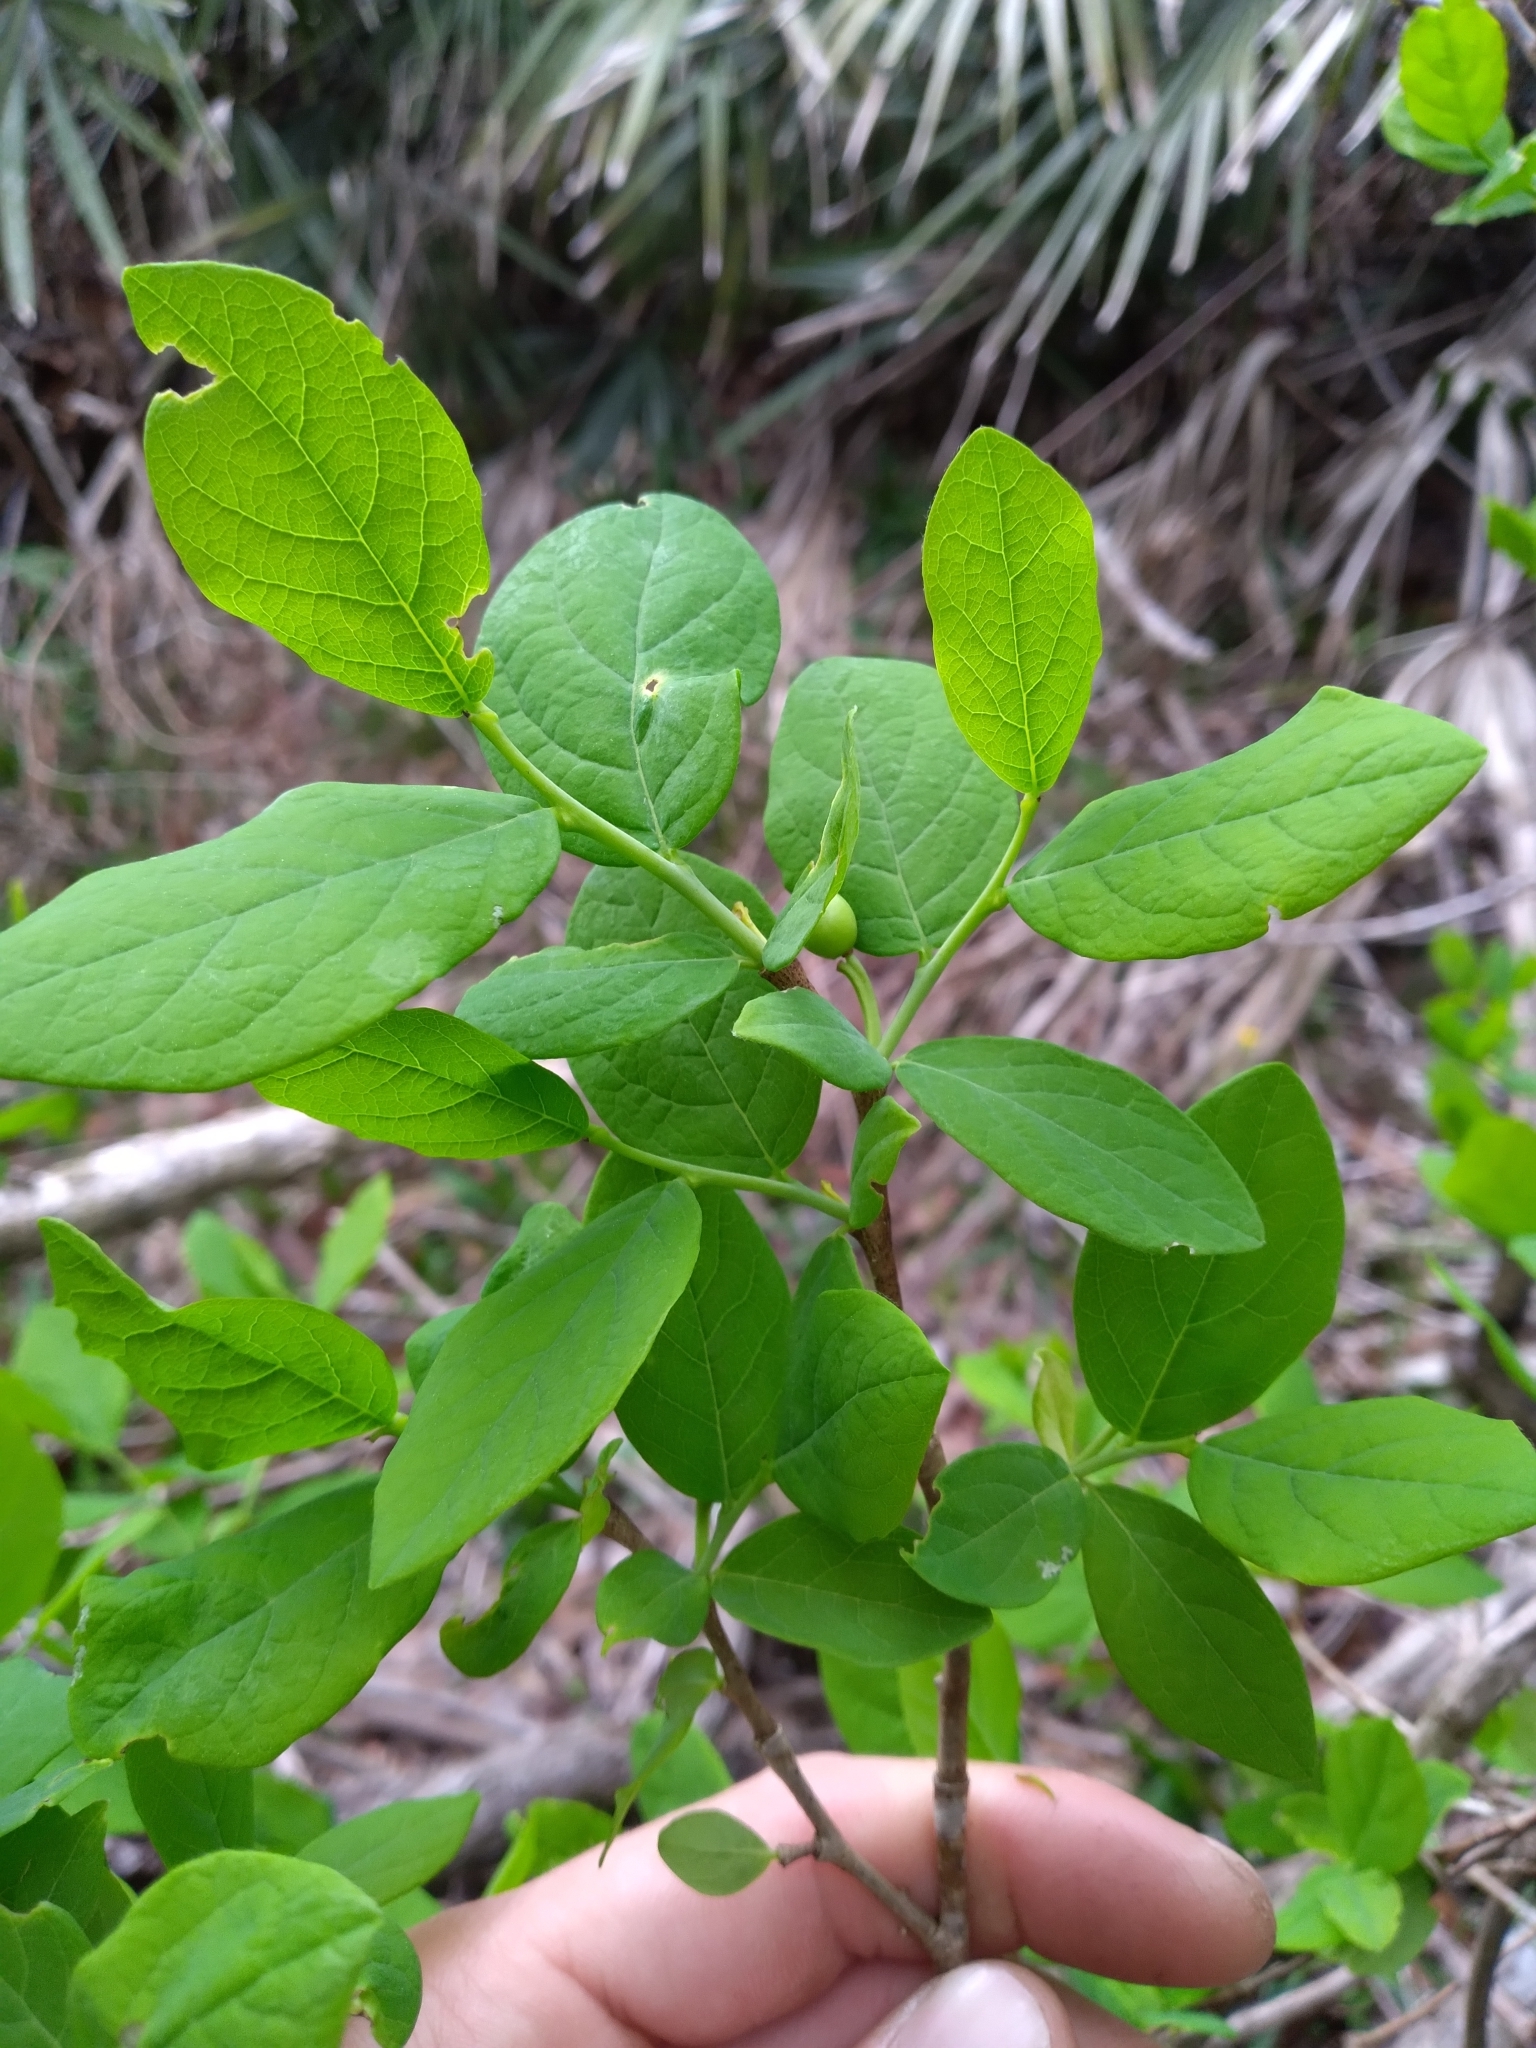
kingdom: Plantae
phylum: Tracheophyta
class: Magnoliopsida
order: Malvales
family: Thymelaeaceae
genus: Dirca
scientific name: Dirca palustris
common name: Leatherwood
